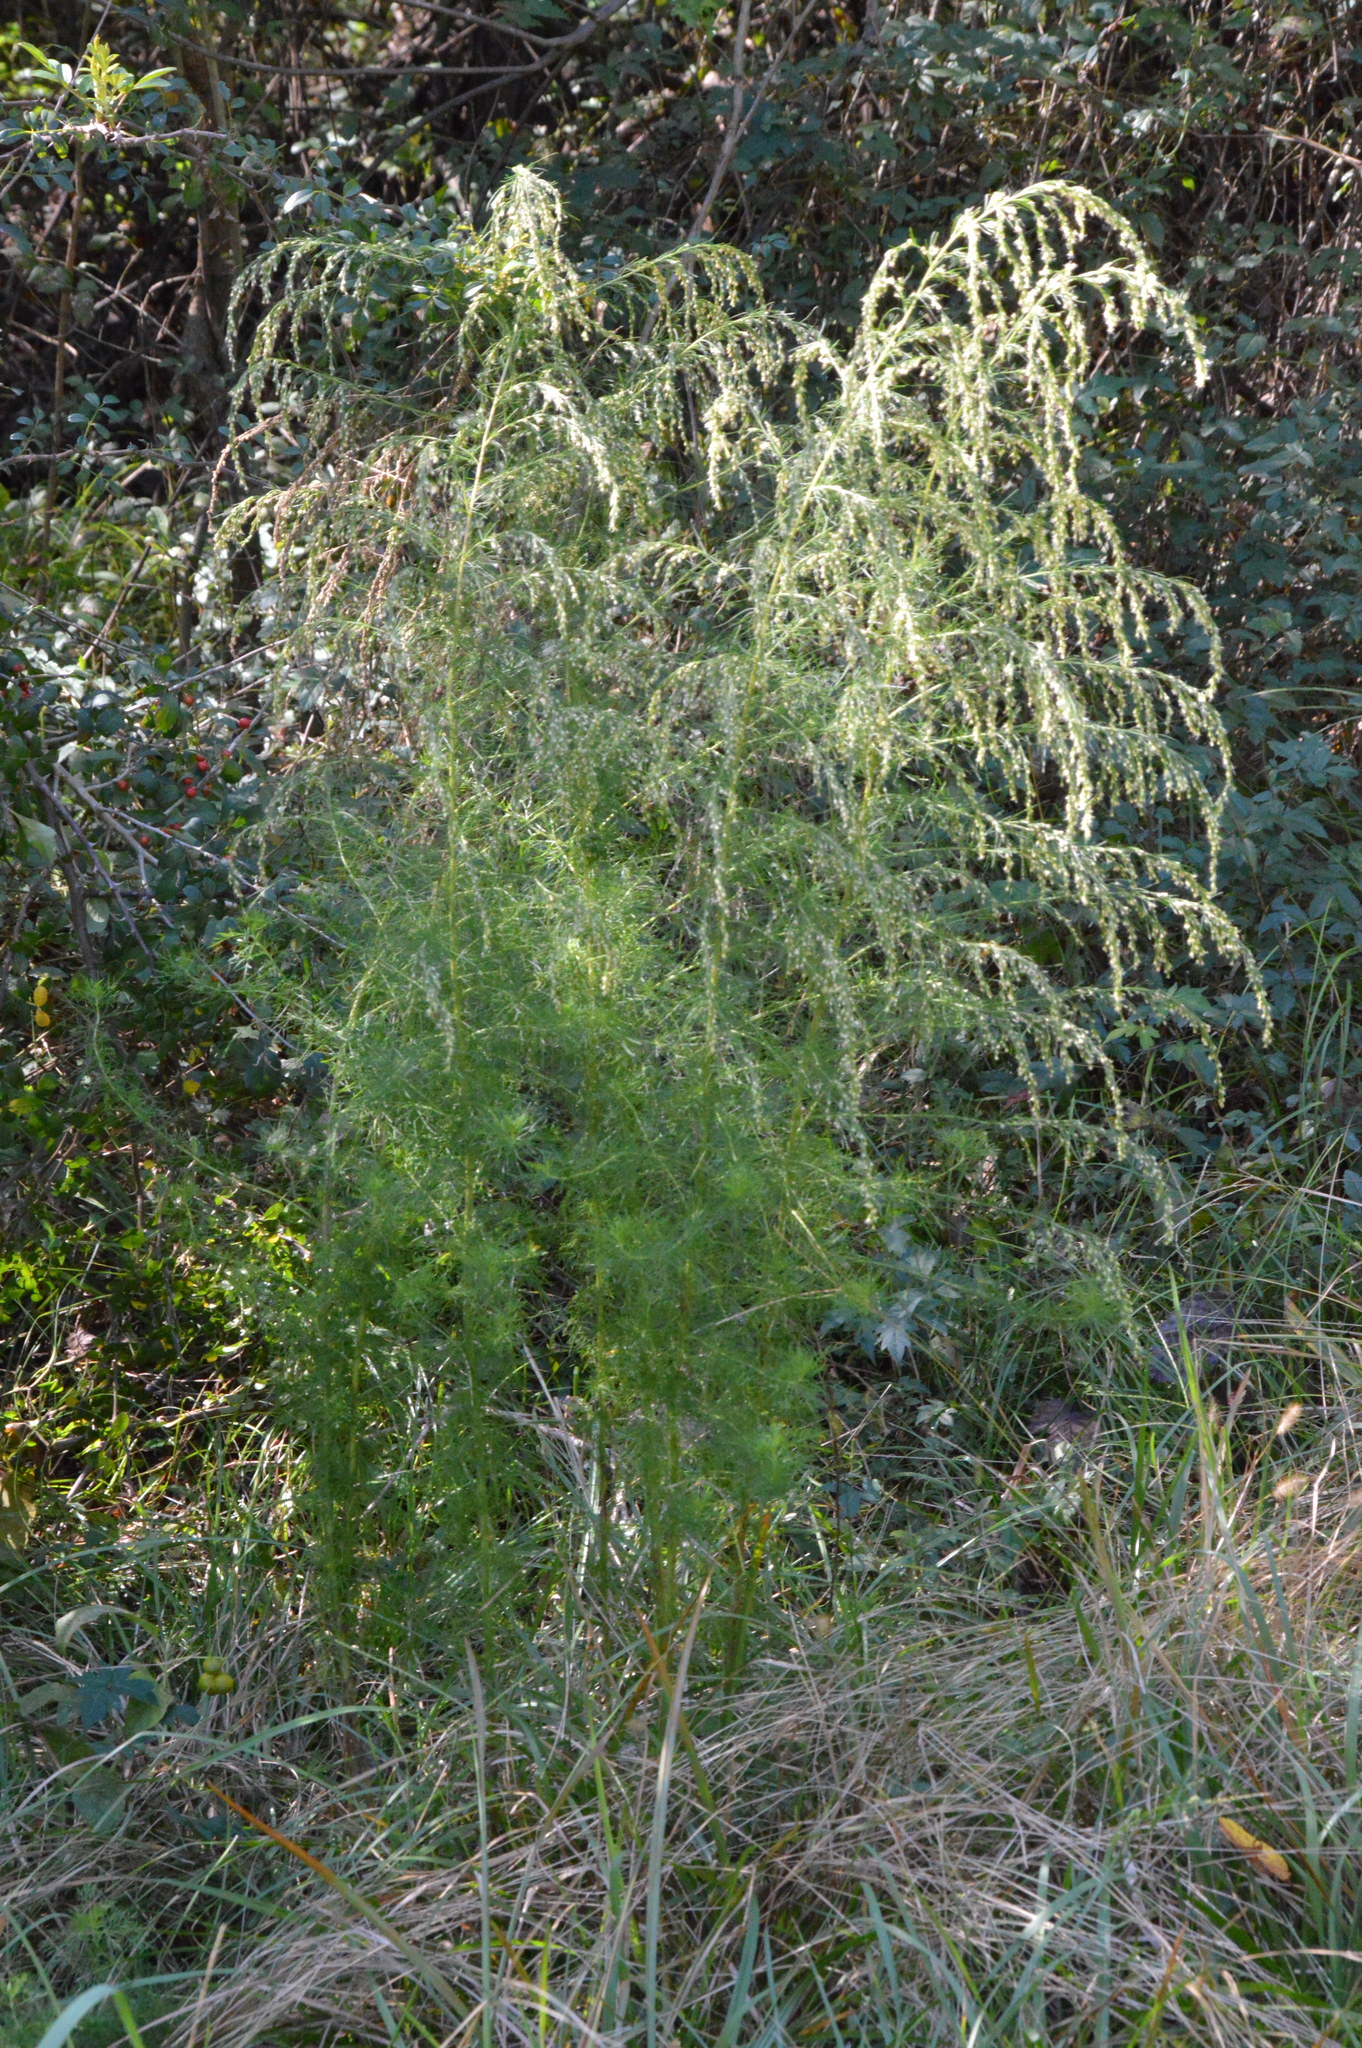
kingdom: Plantae
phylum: Tracheophyta
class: Magnoliopsida
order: Asterales
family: Asteraceae
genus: Eupatorium
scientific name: Eupatorium capillifolium
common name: Dog-fennel
